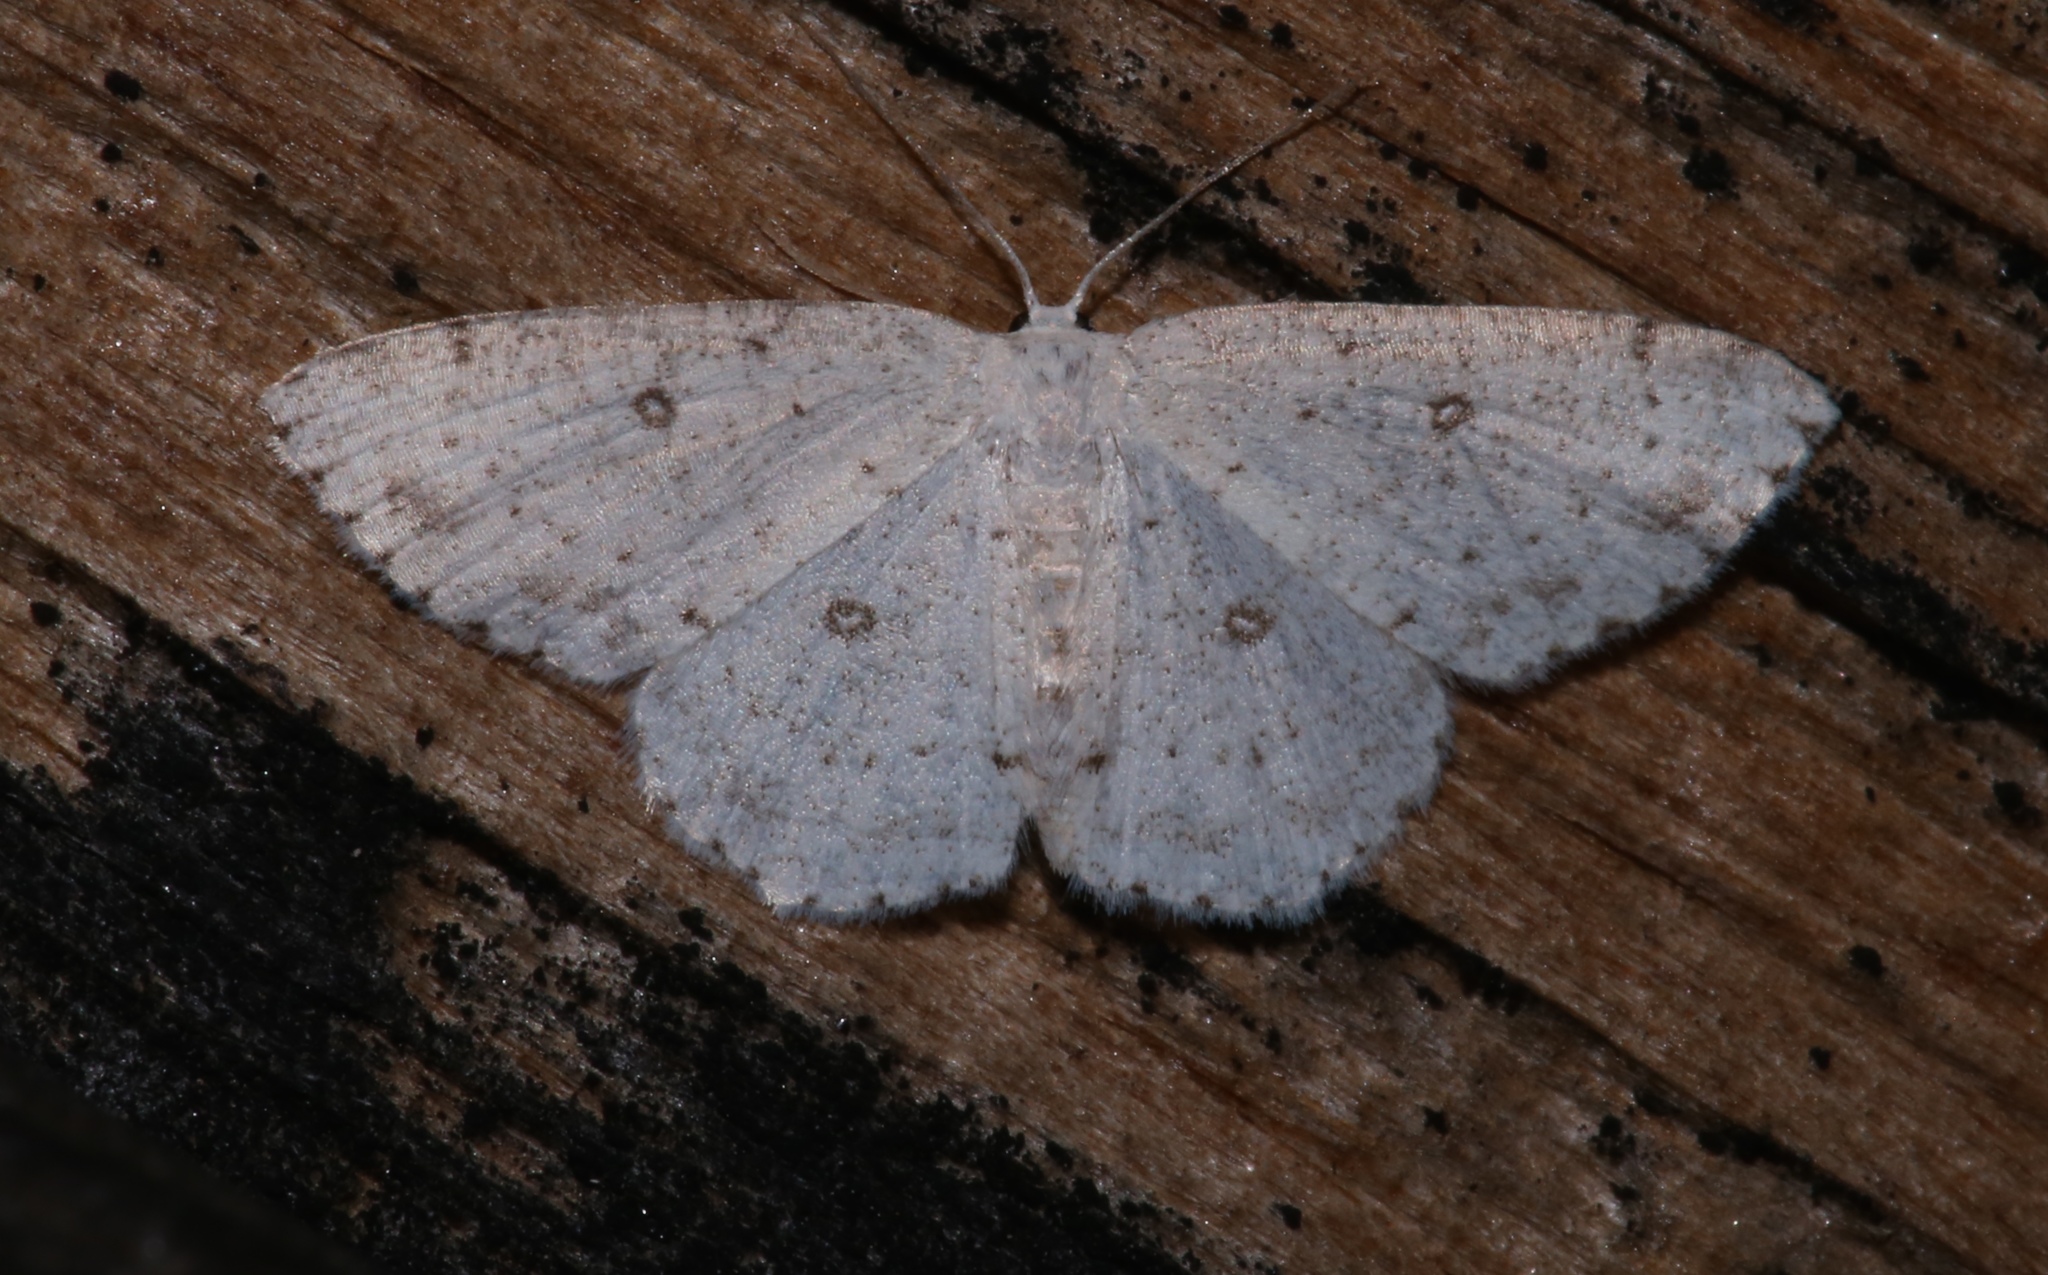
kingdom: Animalia
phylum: Arthropoda
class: Insecta
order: Lepidoptera
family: Geometridae
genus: Cyclophora
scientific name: Cyclophora pendulinaria
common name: Sweet fern geometer
